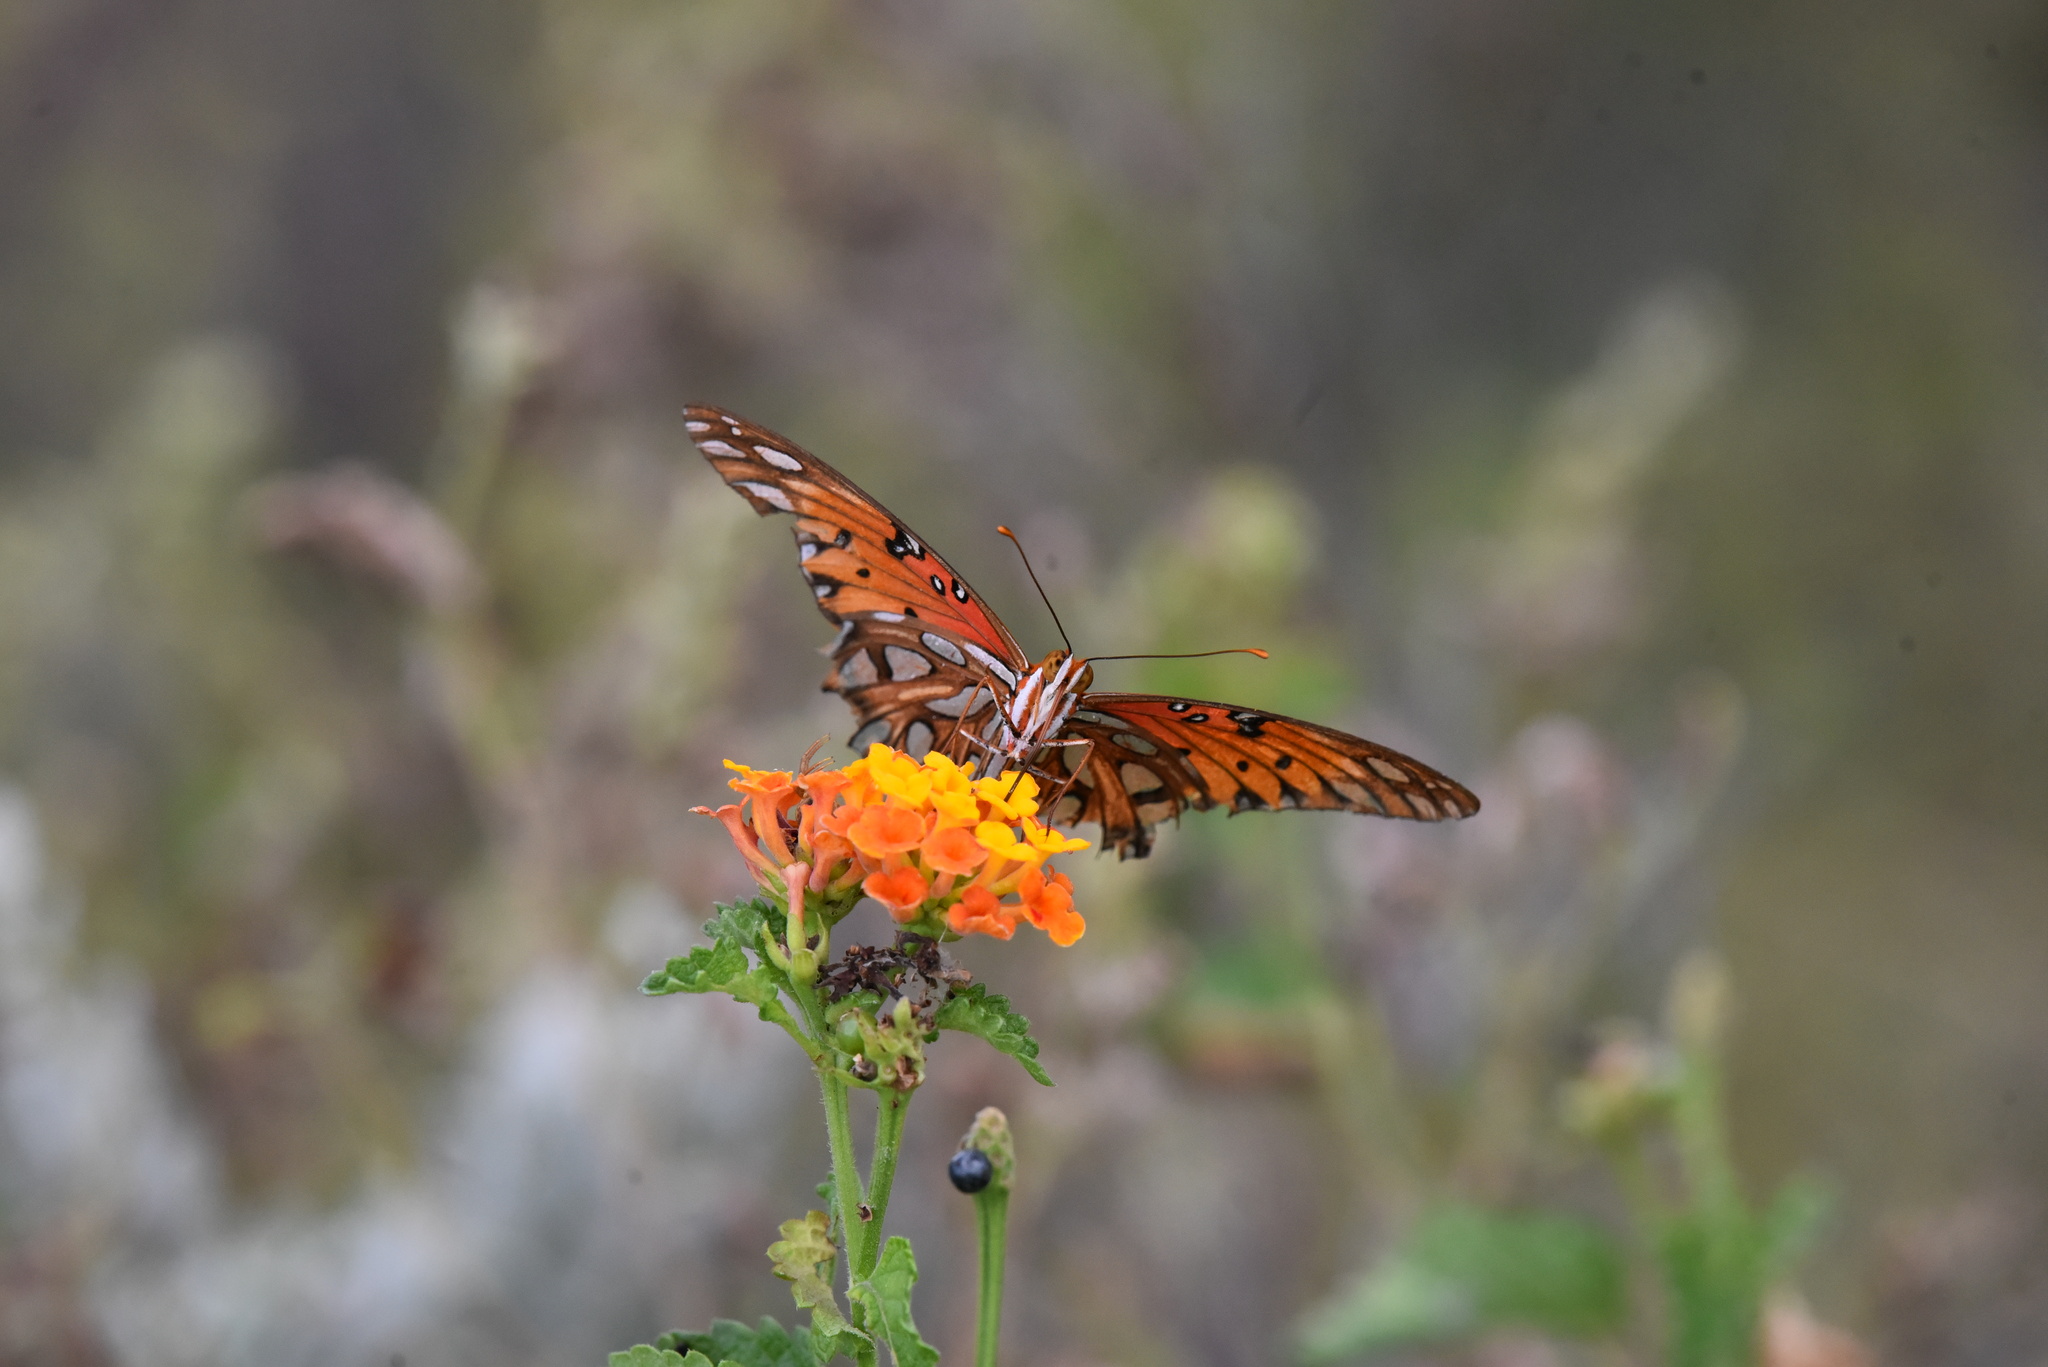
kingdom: Animalia
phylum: Arthropoda
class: Insecta
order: Lepidoptera
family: Nymphalidae
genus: Dione
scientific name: Dione vanillae
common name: Gulf fritillary
